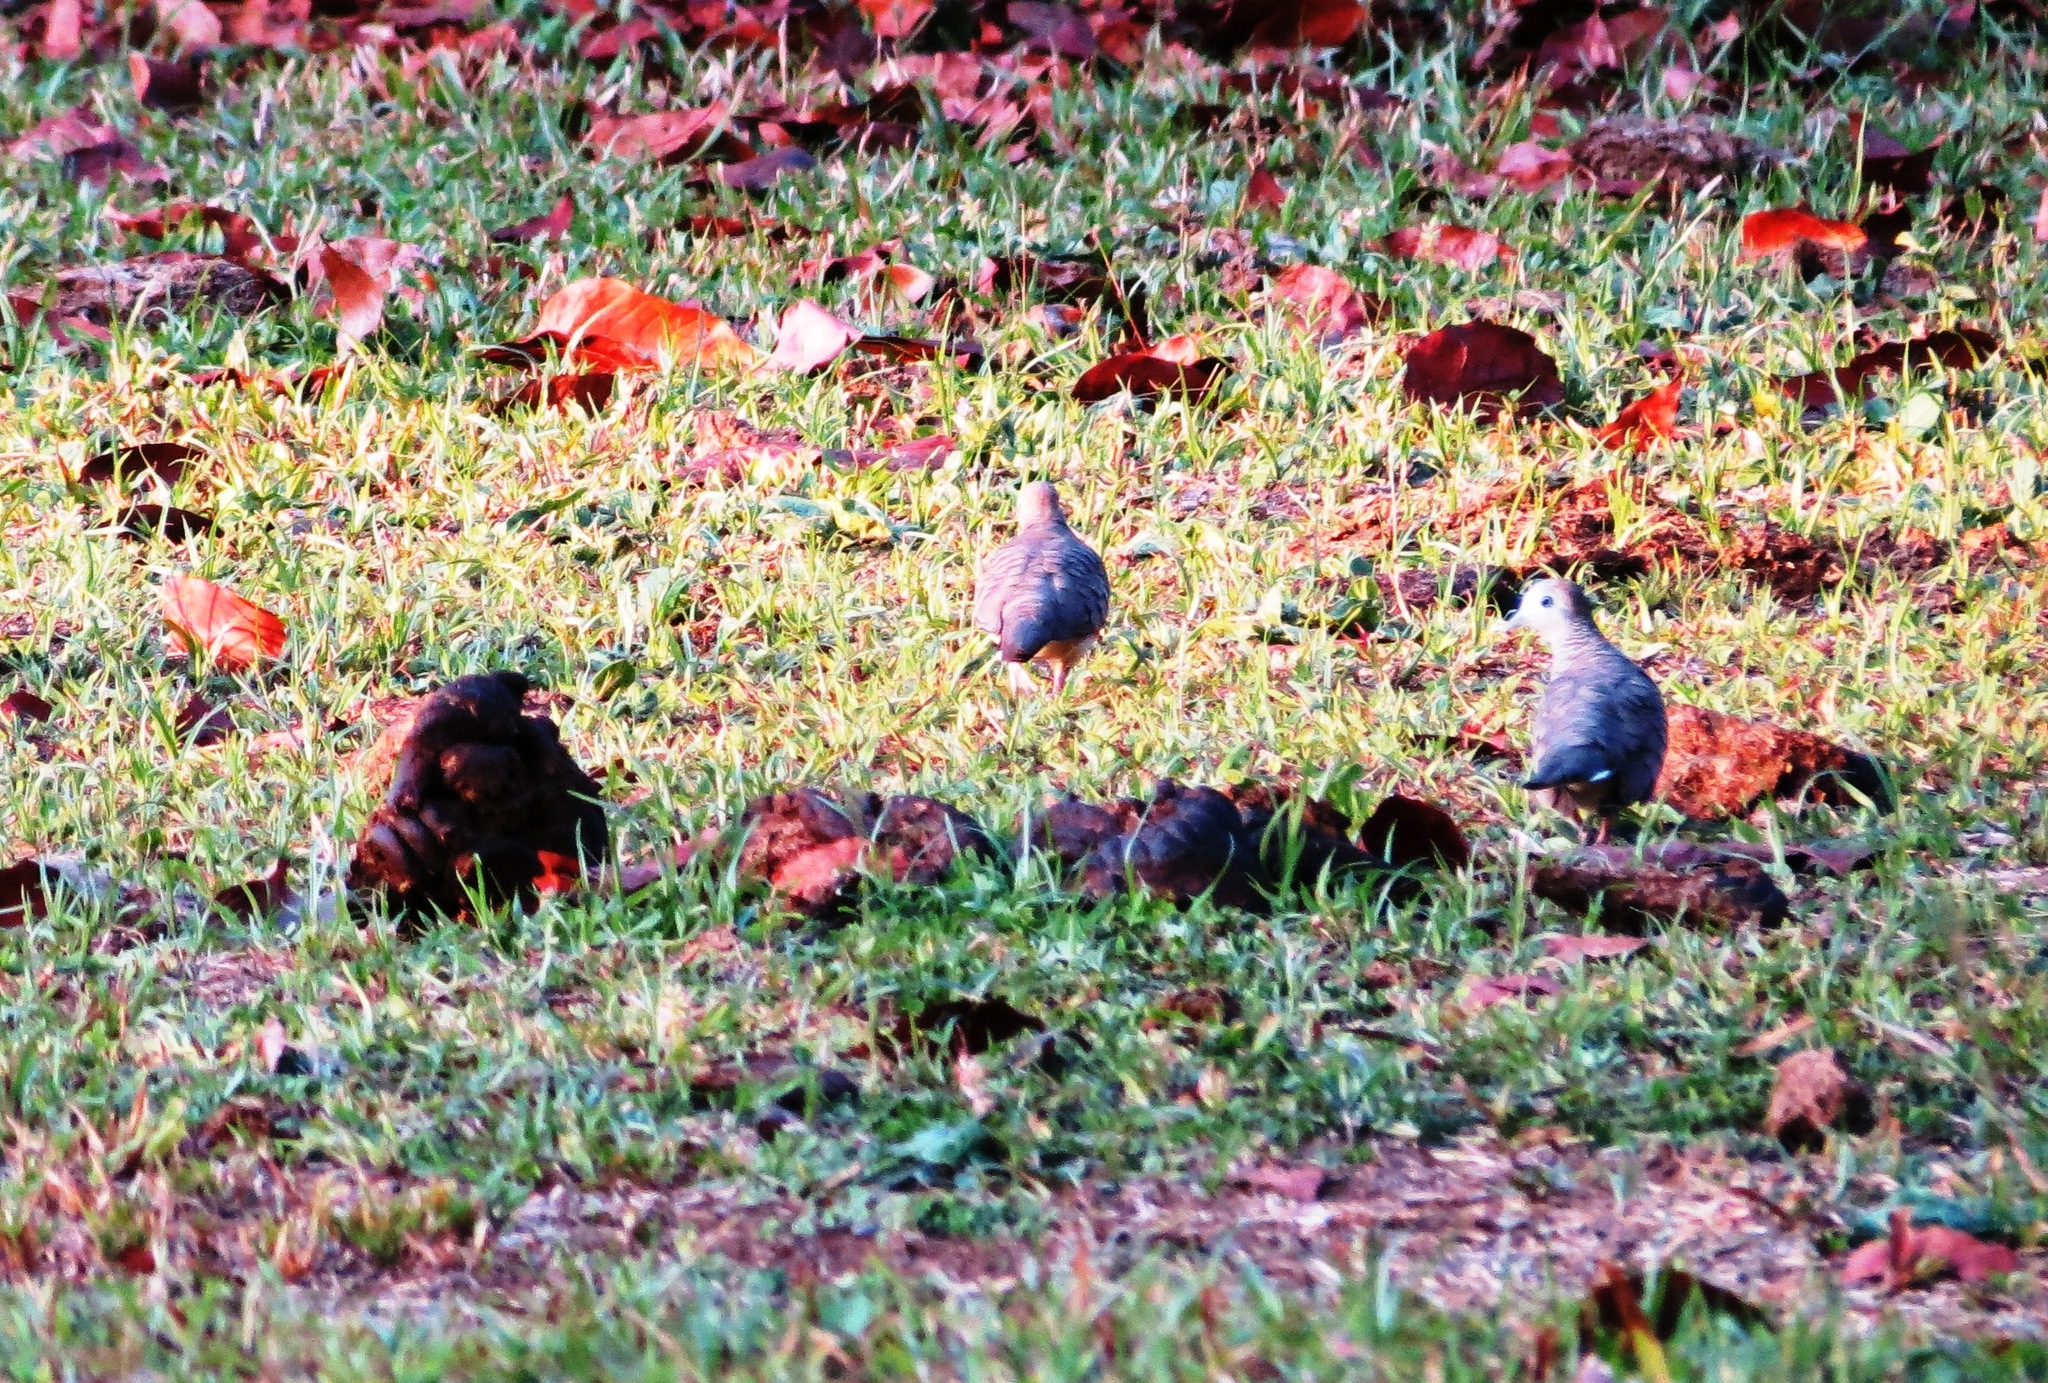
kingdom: Animalia
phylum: Chordata
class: Aves
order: Columbiformes
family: Columbidae
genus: Geopelia
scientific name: Geopelia striata
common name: Zebra dove
